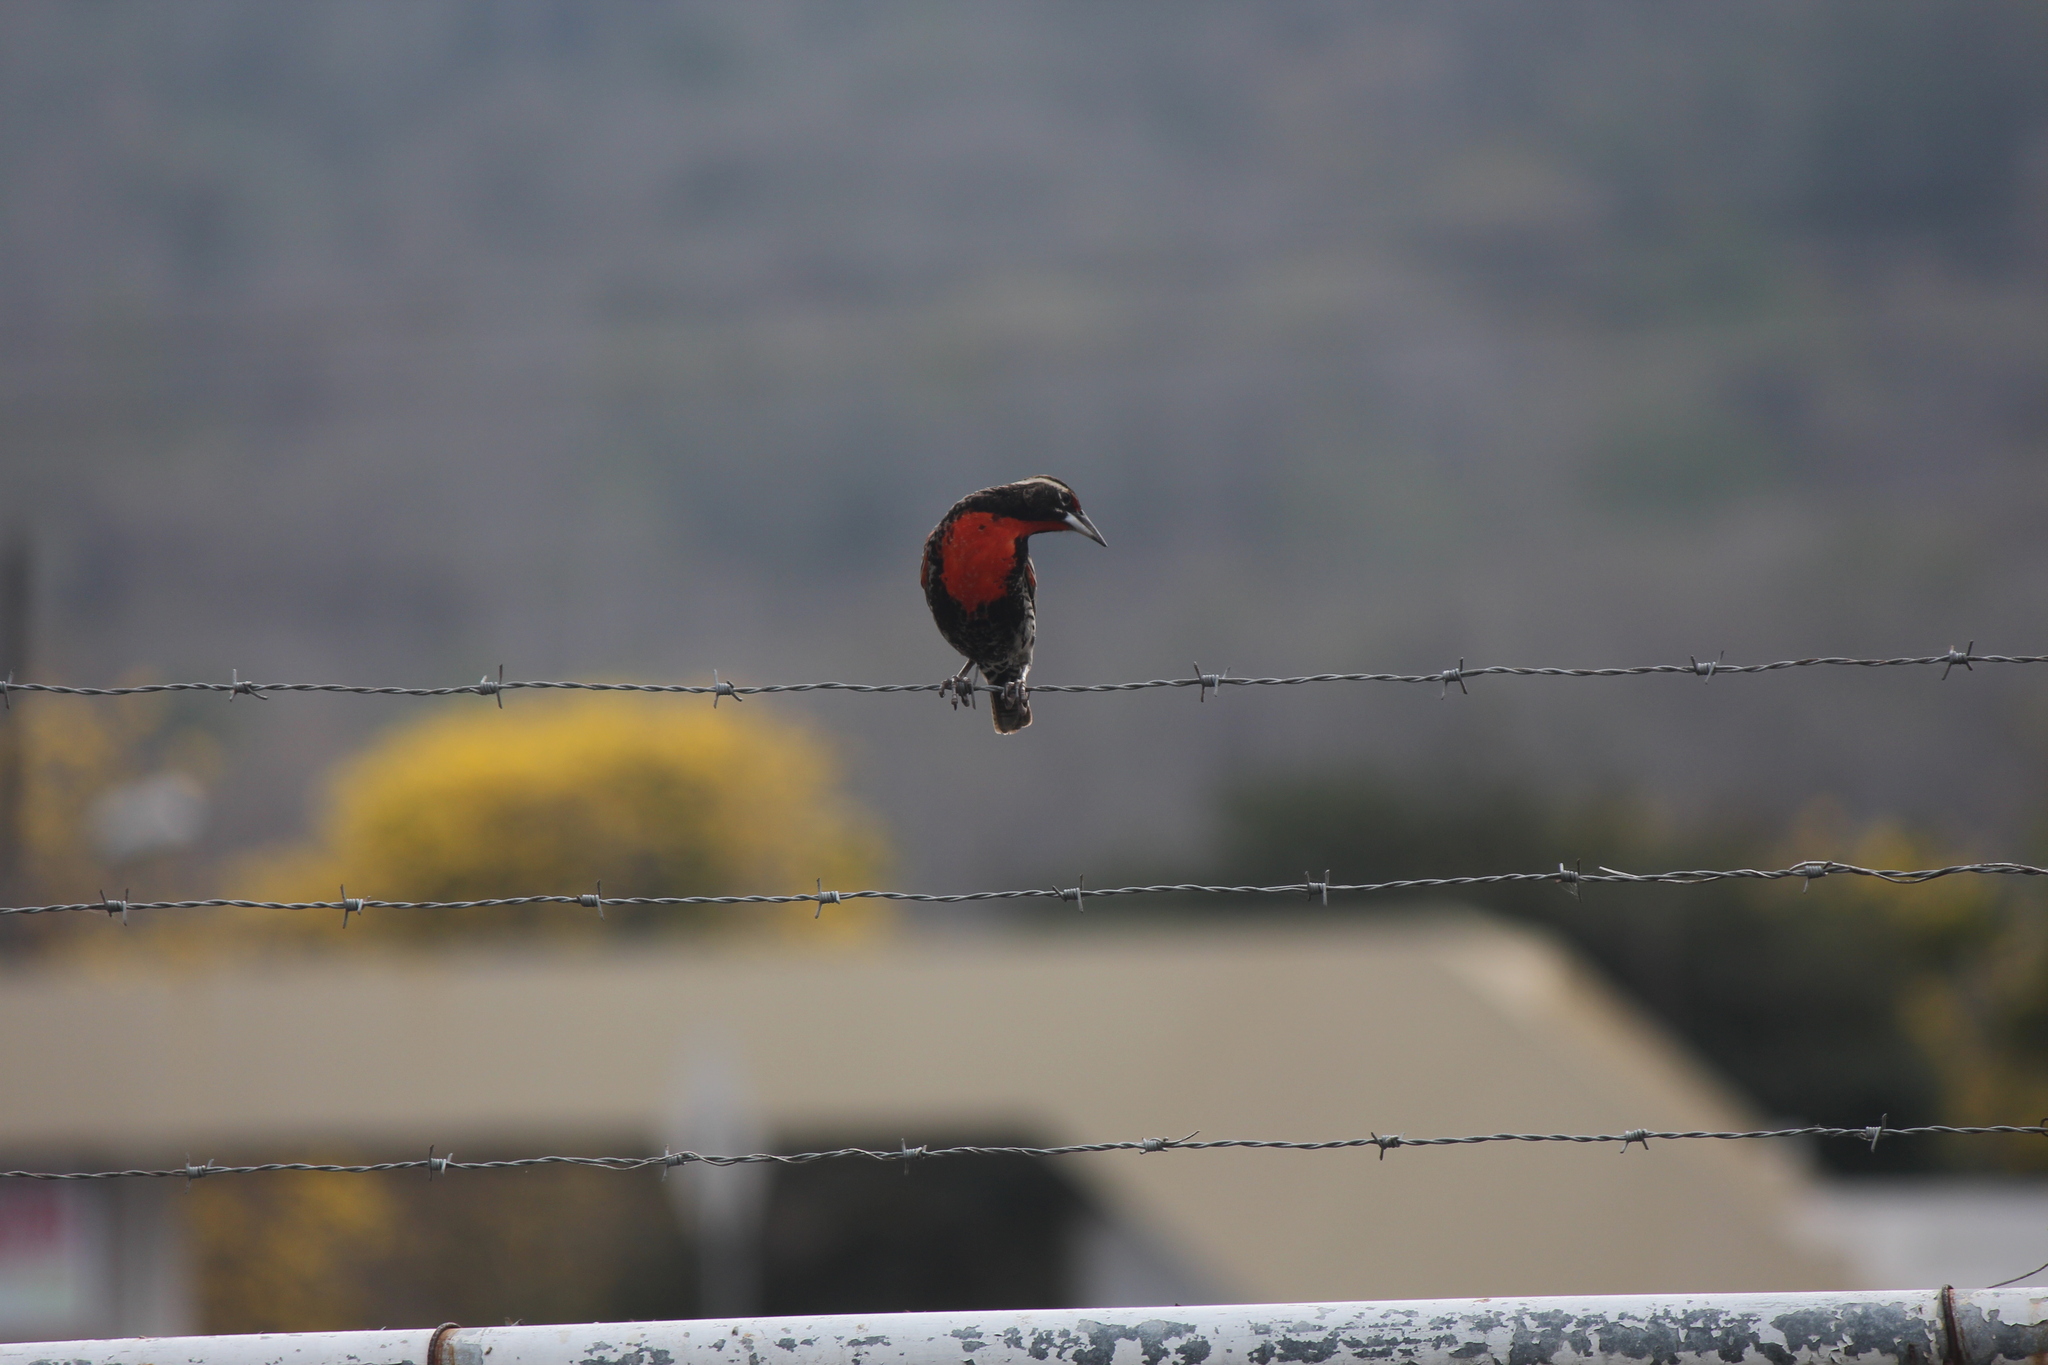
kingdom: Animalia
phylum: Chordata
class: Aves
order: Passeriformes
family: Icteridae
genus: Sturnella
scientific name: Sturnella bellicosa
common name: Peruvian meadowlark
